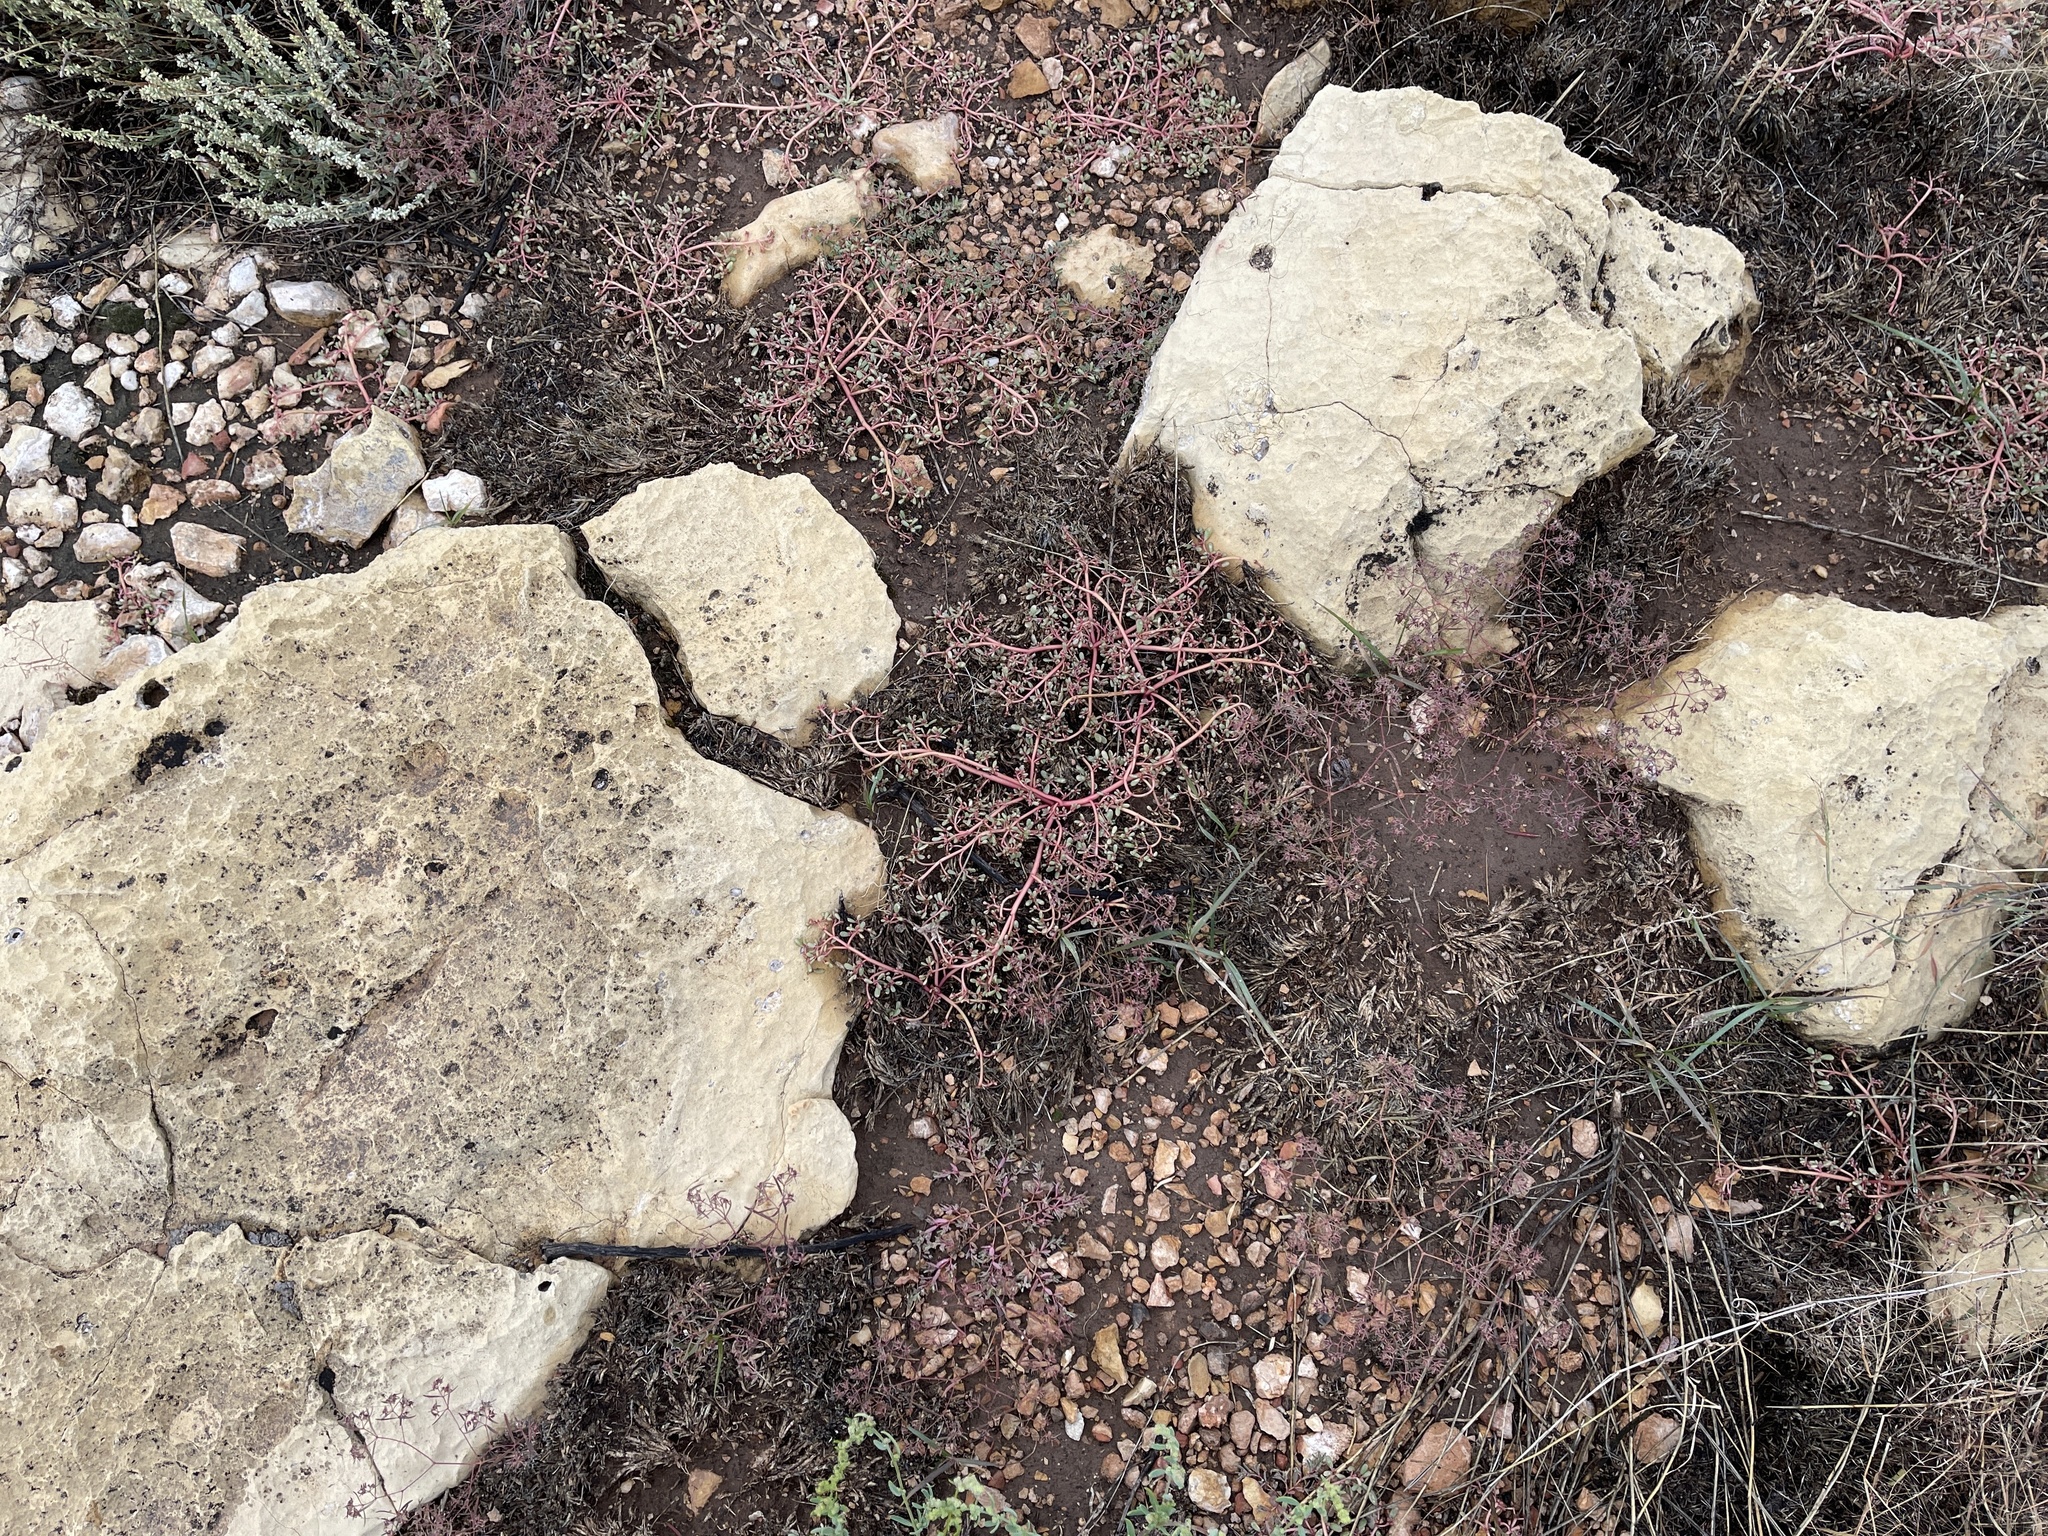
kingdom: Plantae
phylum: Tracheophyta
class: Magnoliopsida
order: Caryophyllales
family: Portulacaceae
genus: Portulaca
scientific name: Portulaca oleracea
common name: Common purslane
